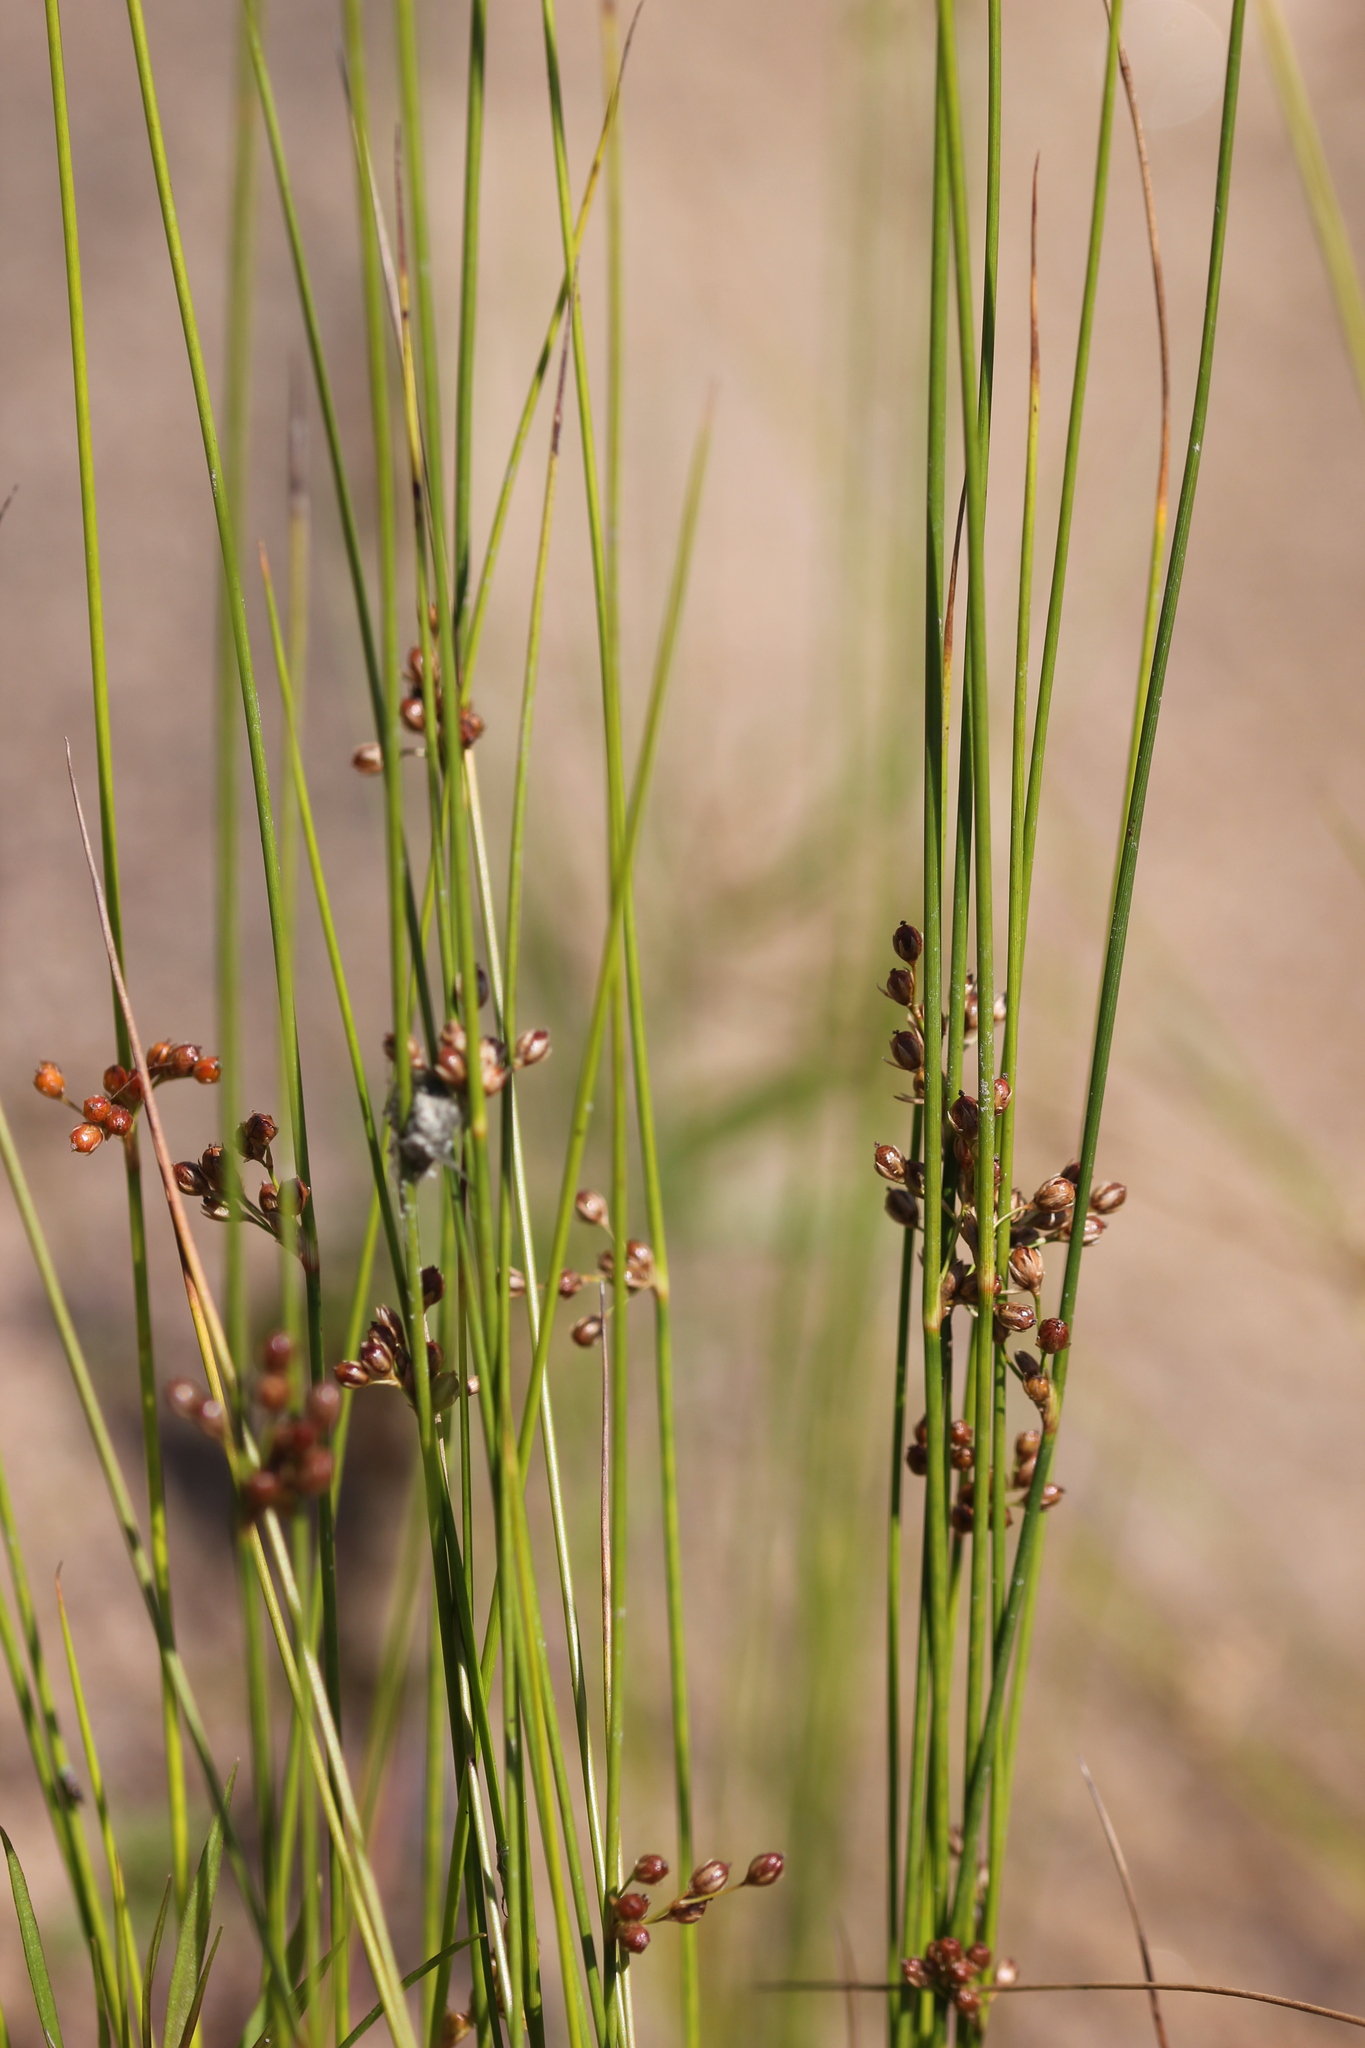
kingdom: Plantae
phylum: Tracheophyta
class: Liliopsida
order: Poales
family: Juncaceae
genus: Juncus
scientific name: Juncus filiformis
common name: Thread rush
